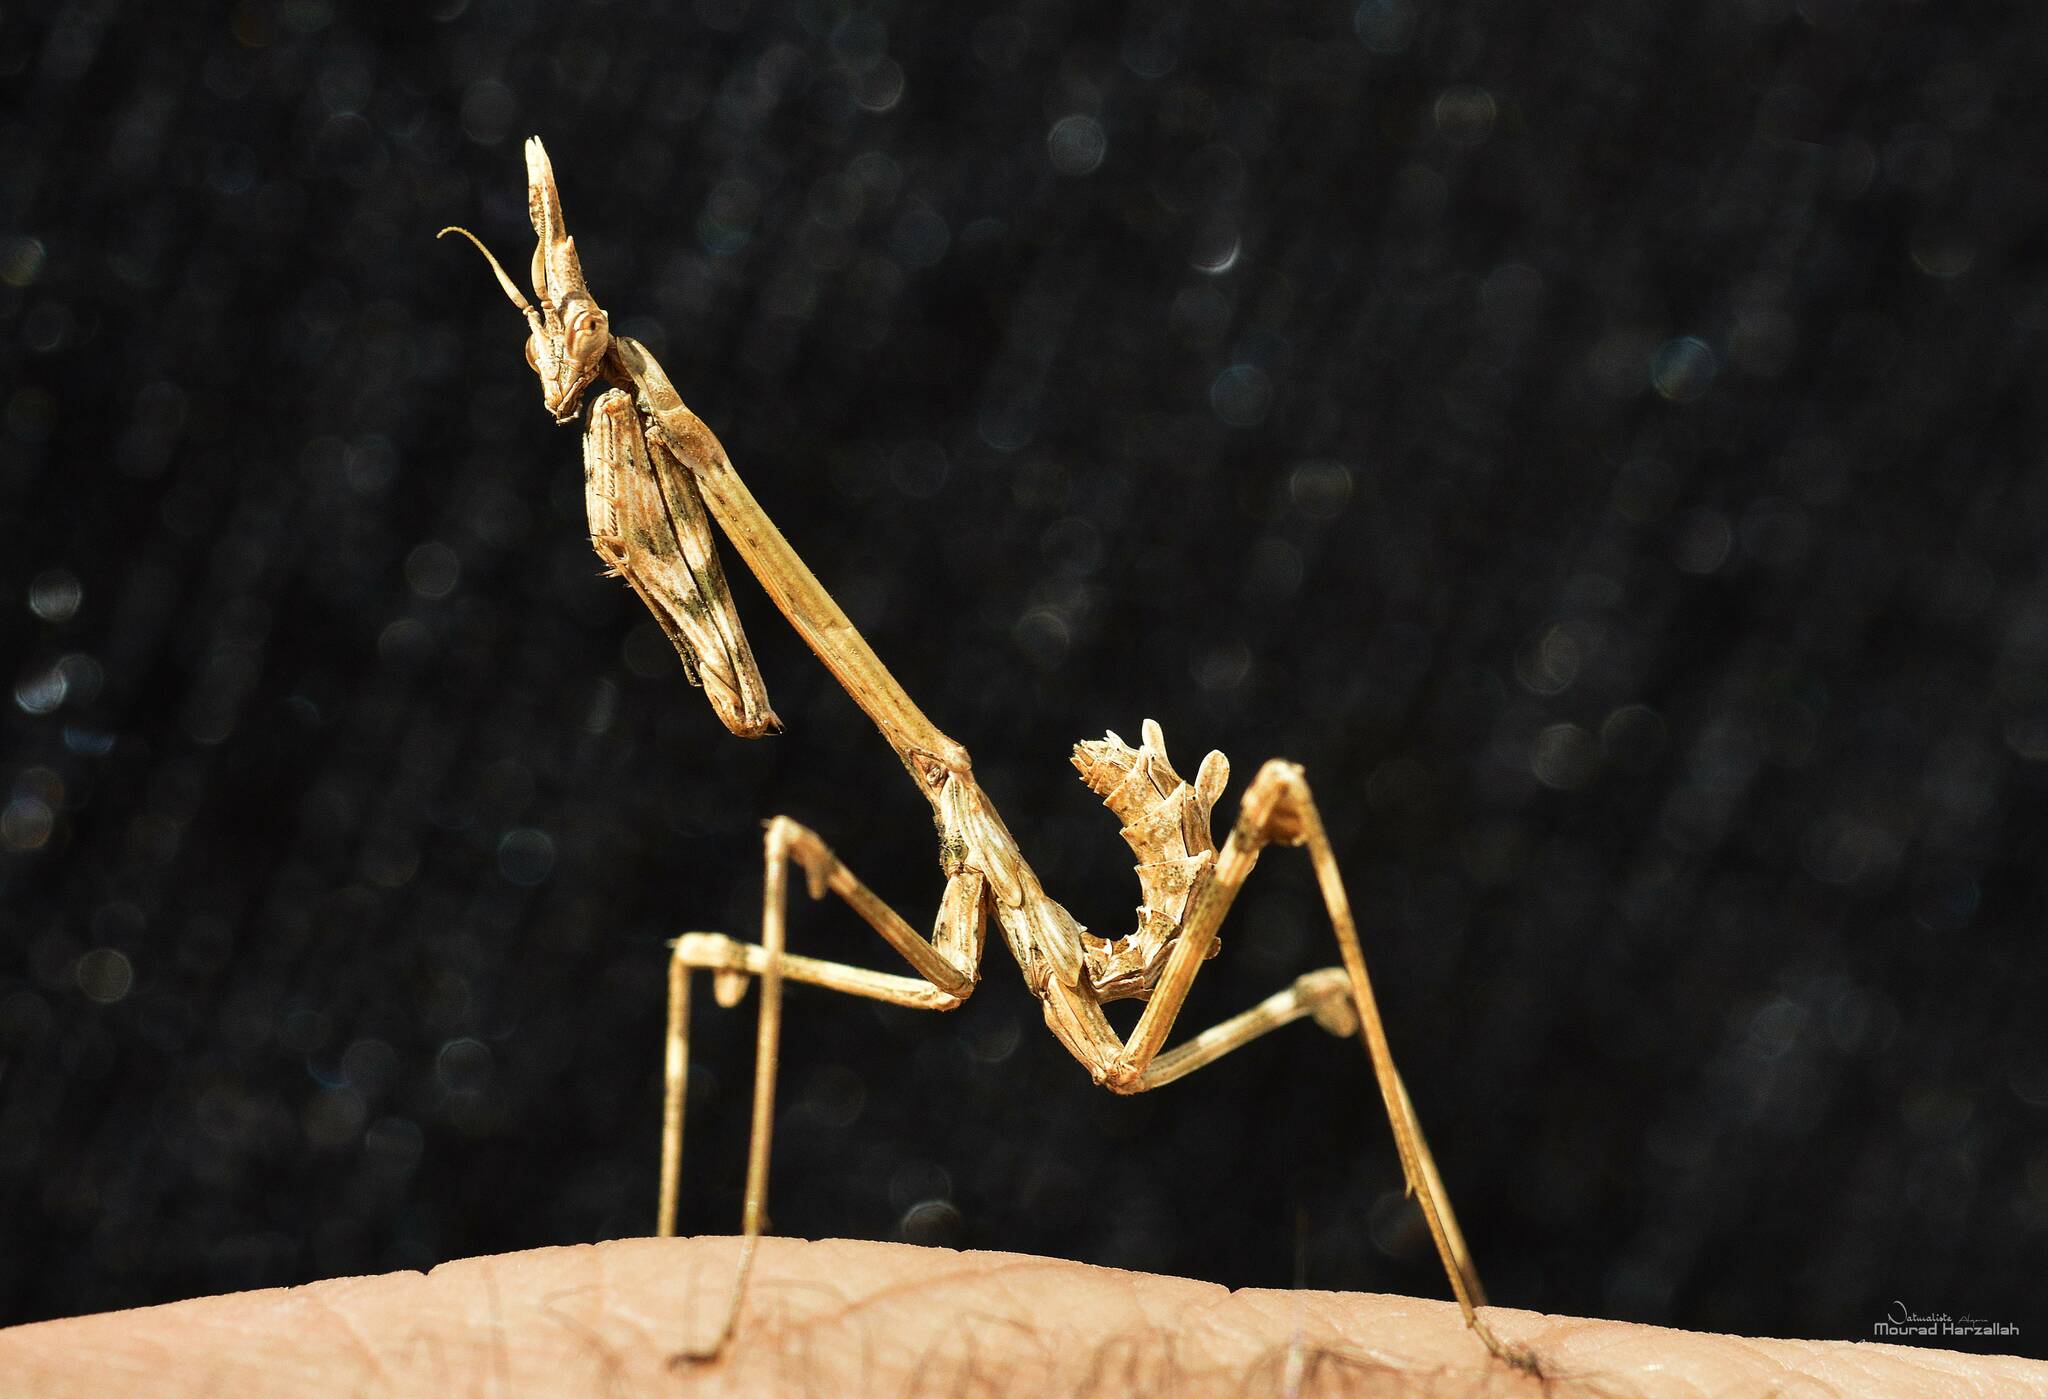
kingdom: Animalia
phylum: Arthropoda
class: Insecta
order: Mantodea
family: Empusidae
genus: Empusa
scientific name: Empusa pennata
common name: Conehead mantis
